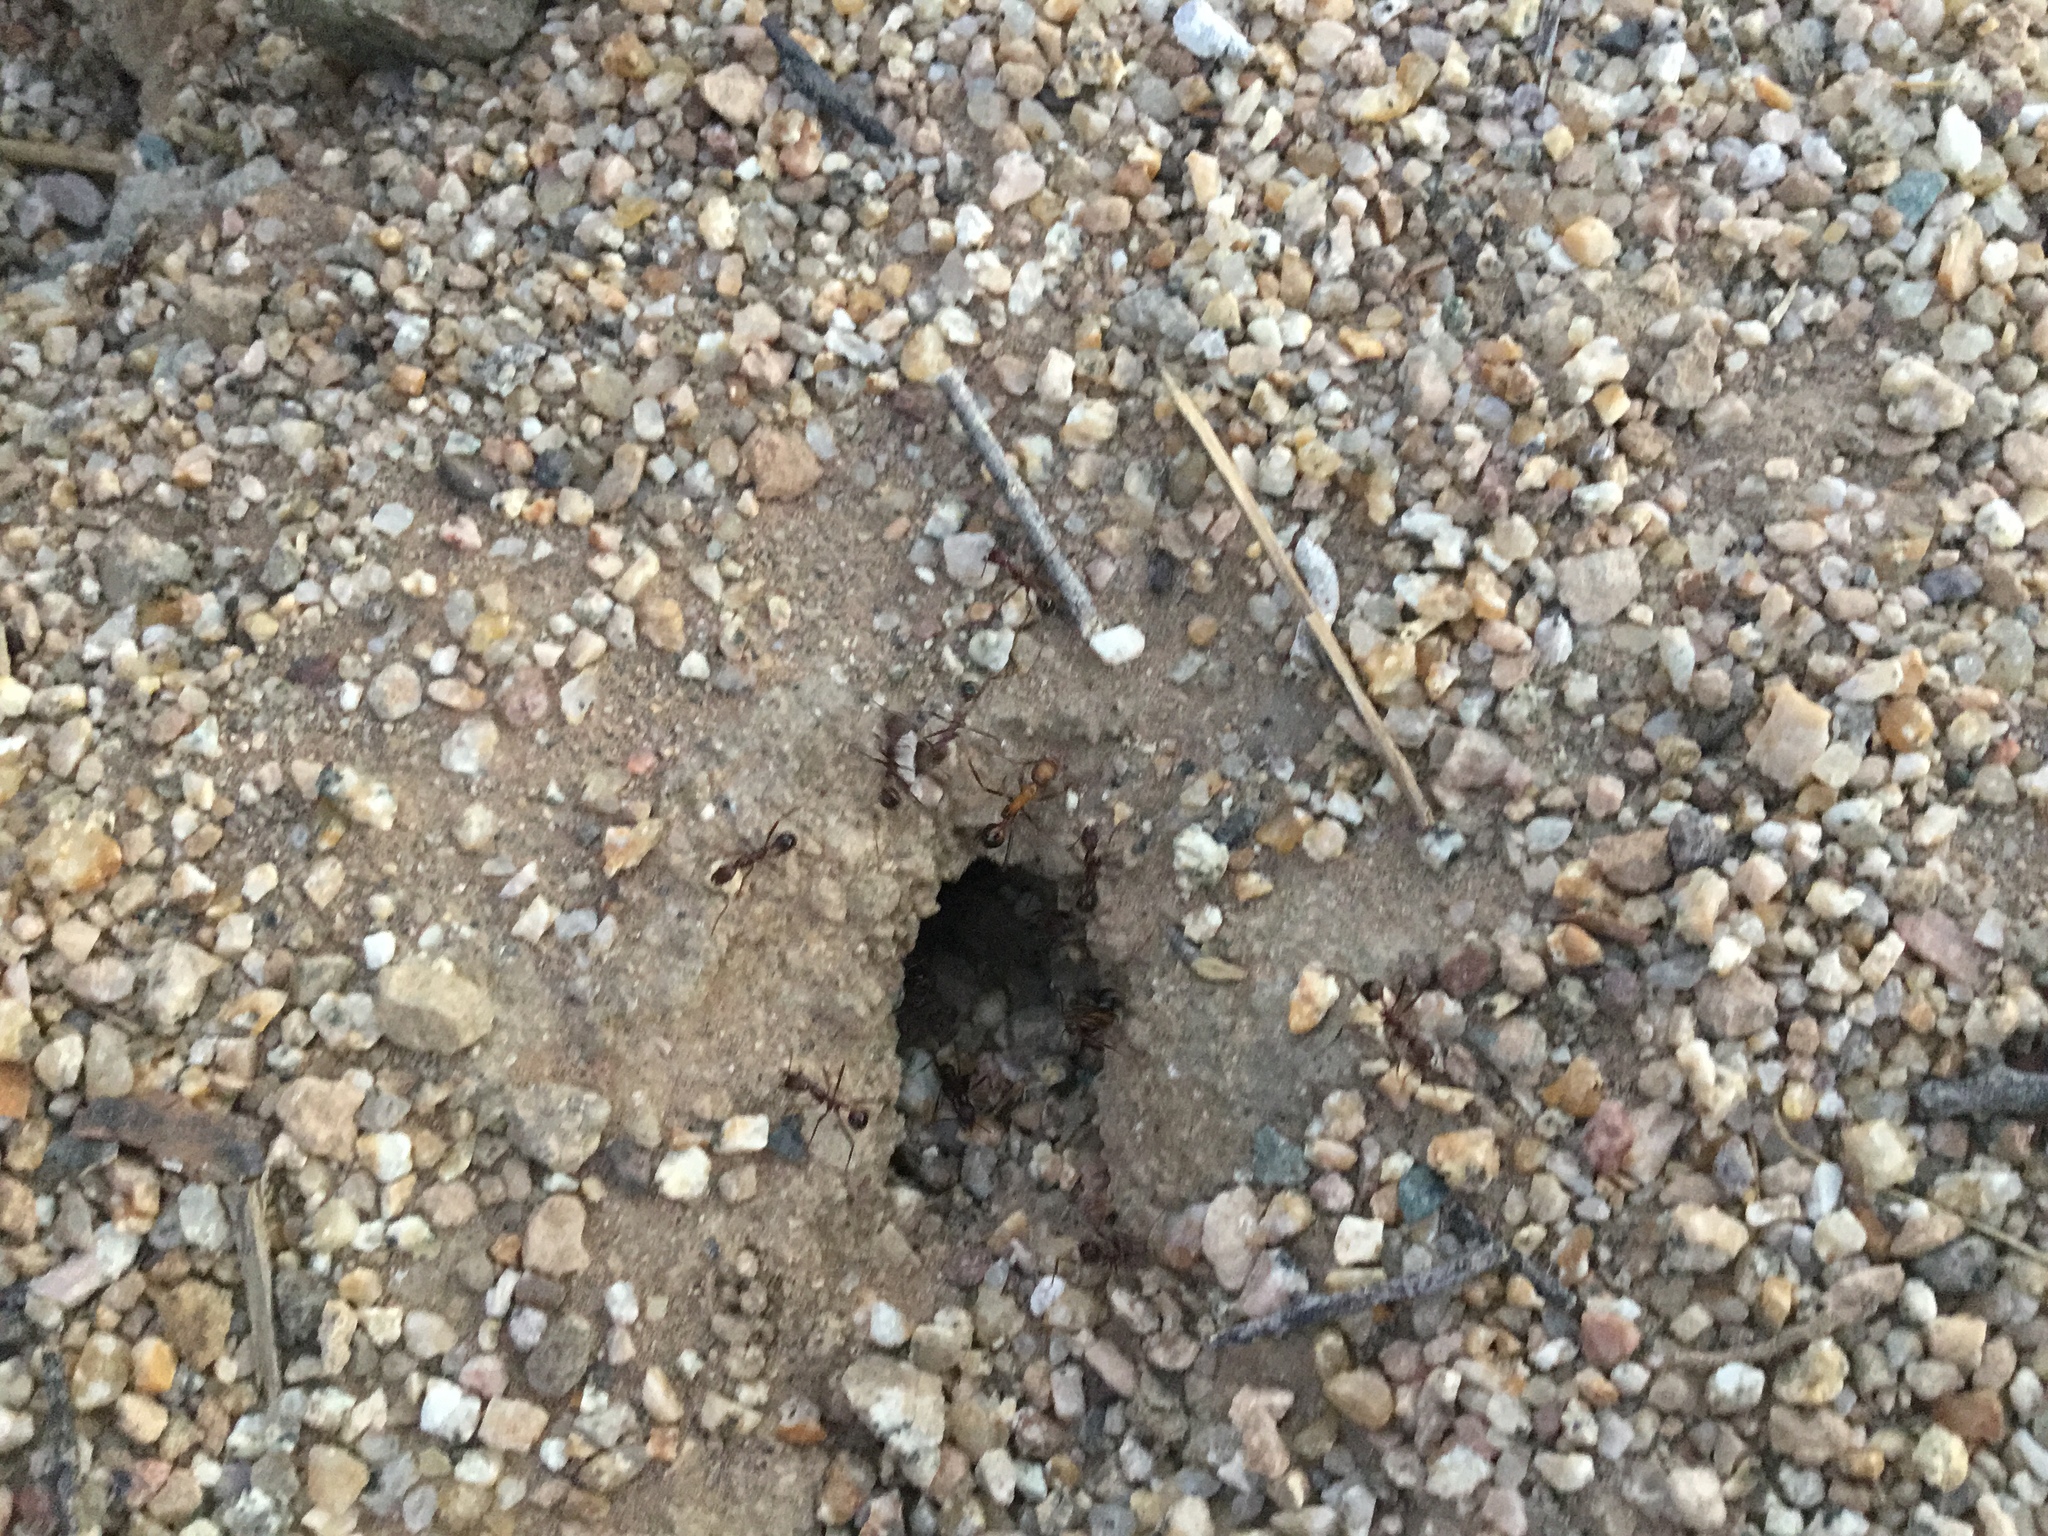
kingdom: Animalia
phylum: Arthropoda
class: Insecta
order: Hymenoptera
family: Formicidae
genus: Novomessor
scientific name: Novomessor cockerelli
